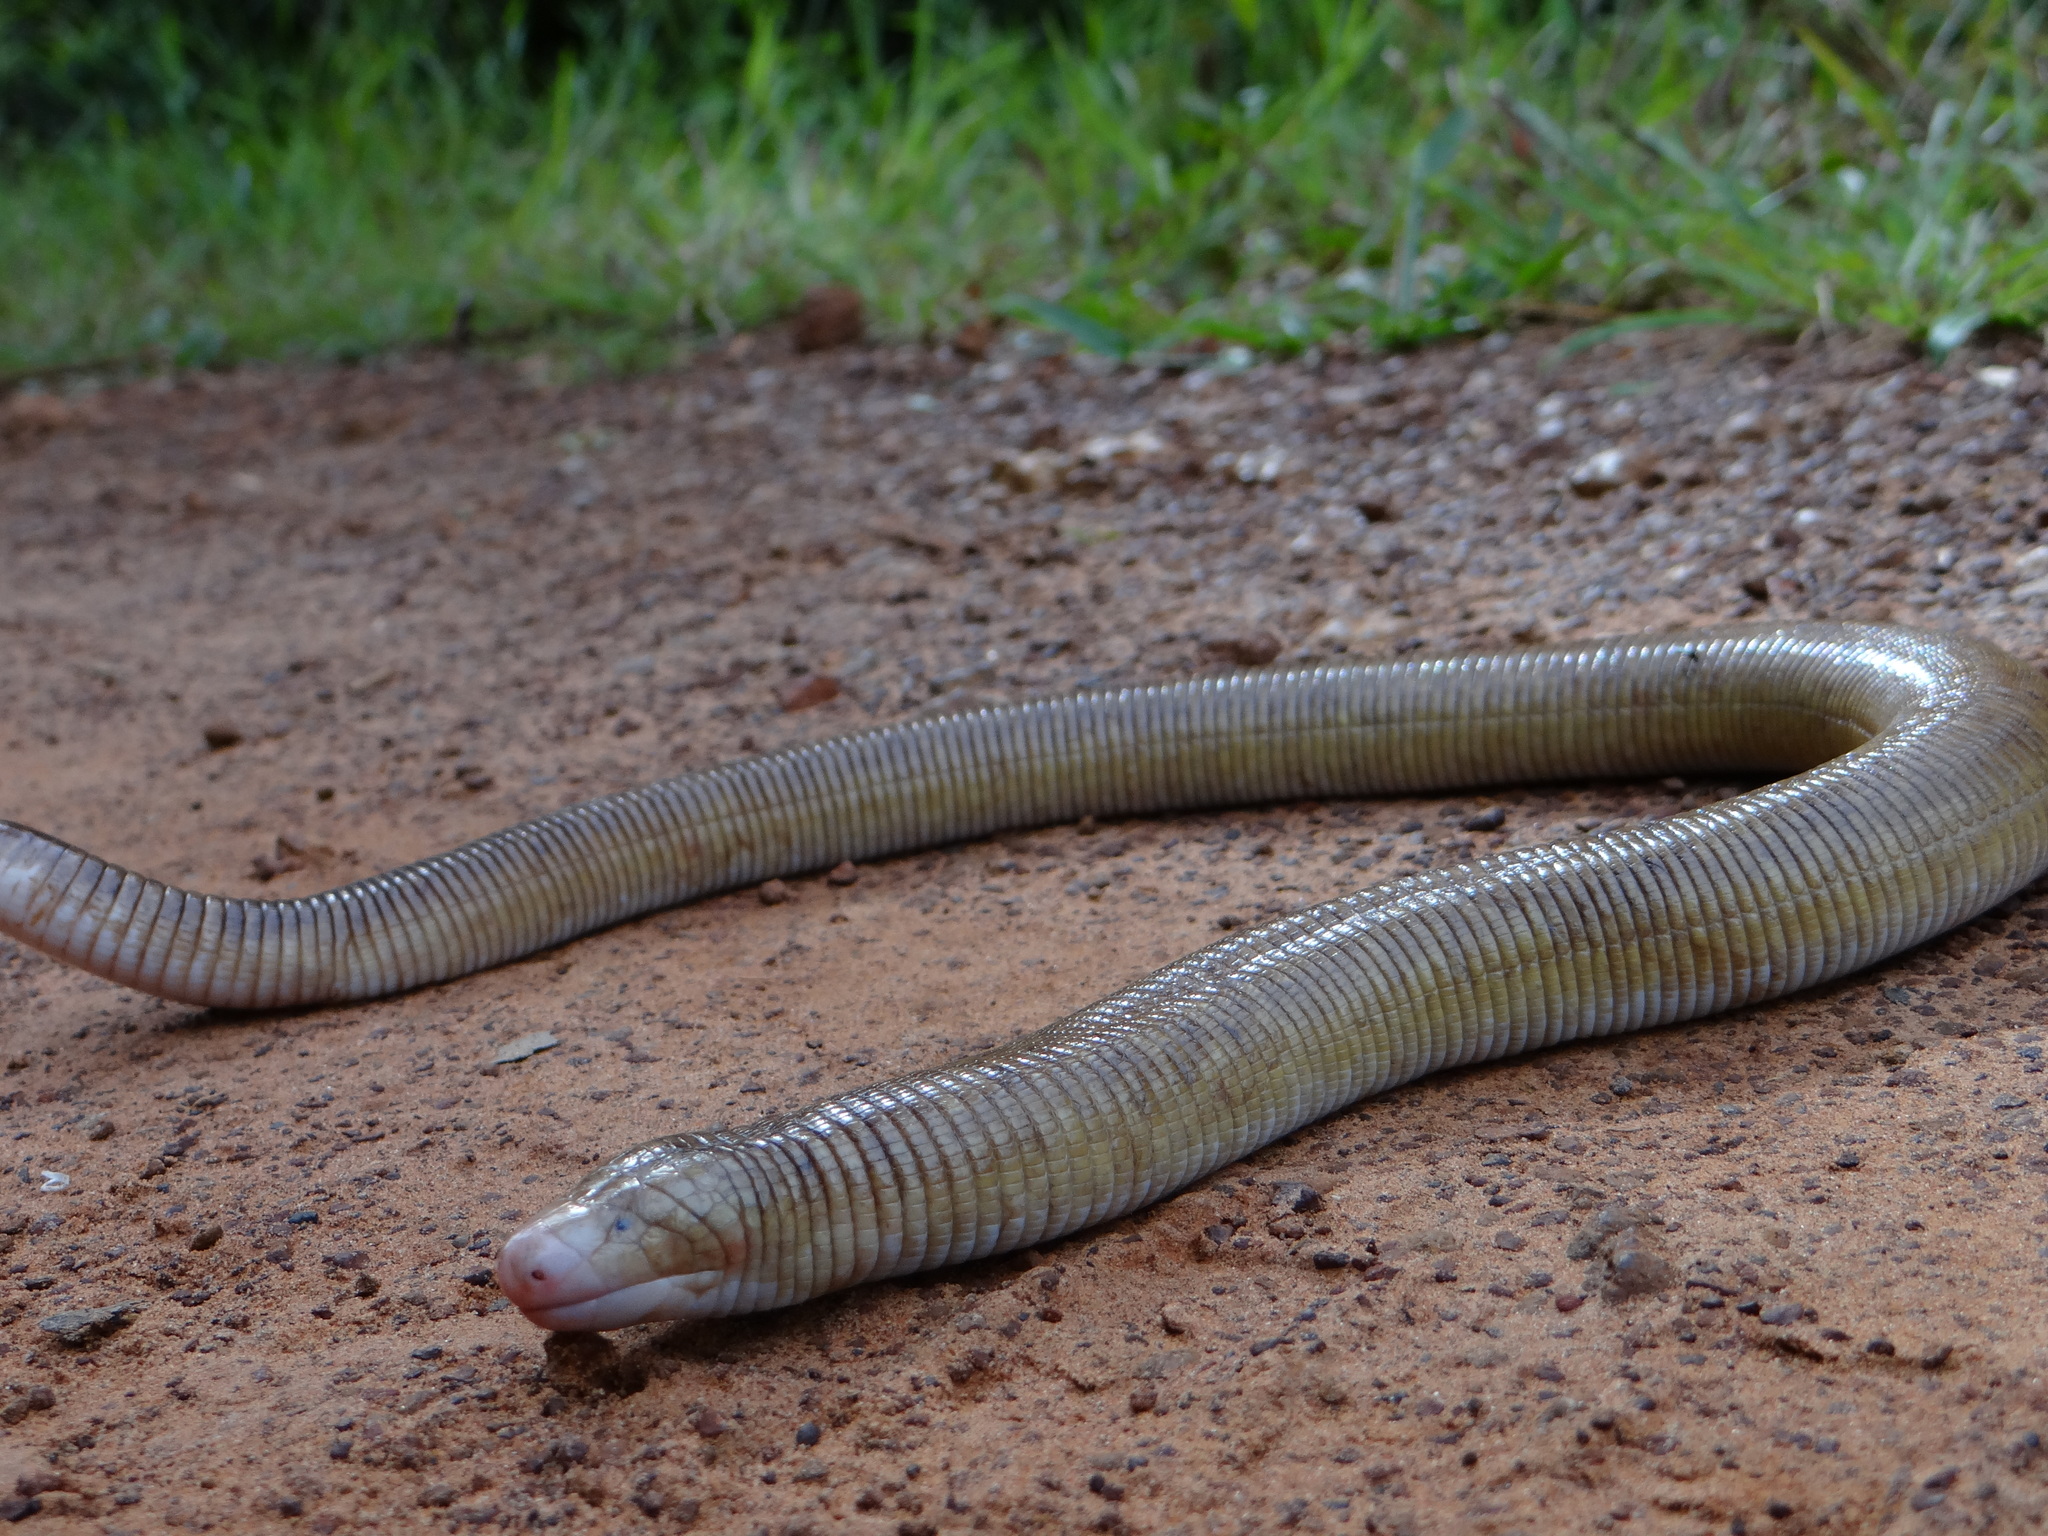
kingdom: Animalia
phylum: Chordata
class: Squamata
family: Amphisbaenidae
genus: Amphisbaena
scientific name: Amphisbaena alba
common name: Red worm lizard
